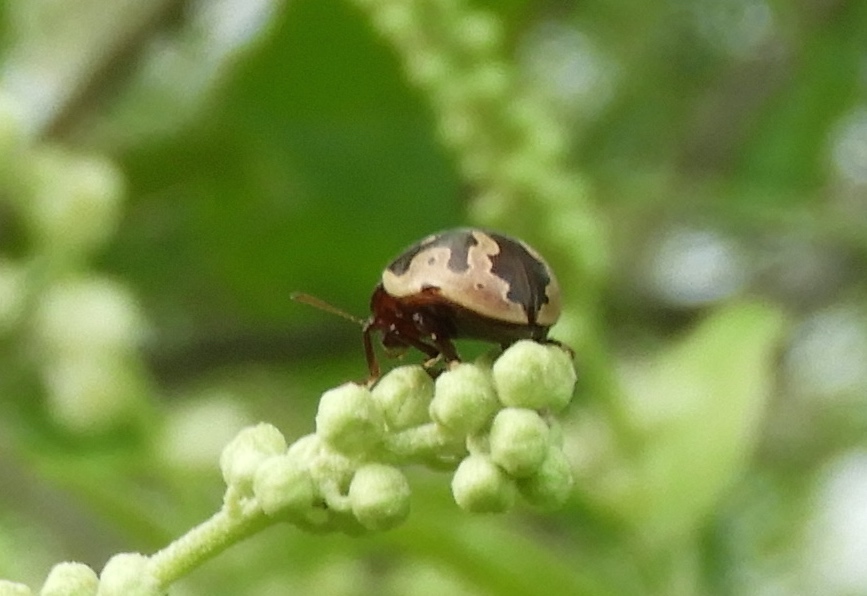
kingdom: Animalia
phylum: Arthropoda
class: Insecta
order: Coleoptera
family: Chrysomelidae
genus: Calligrapha
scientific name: Calligrapha ancoralis
